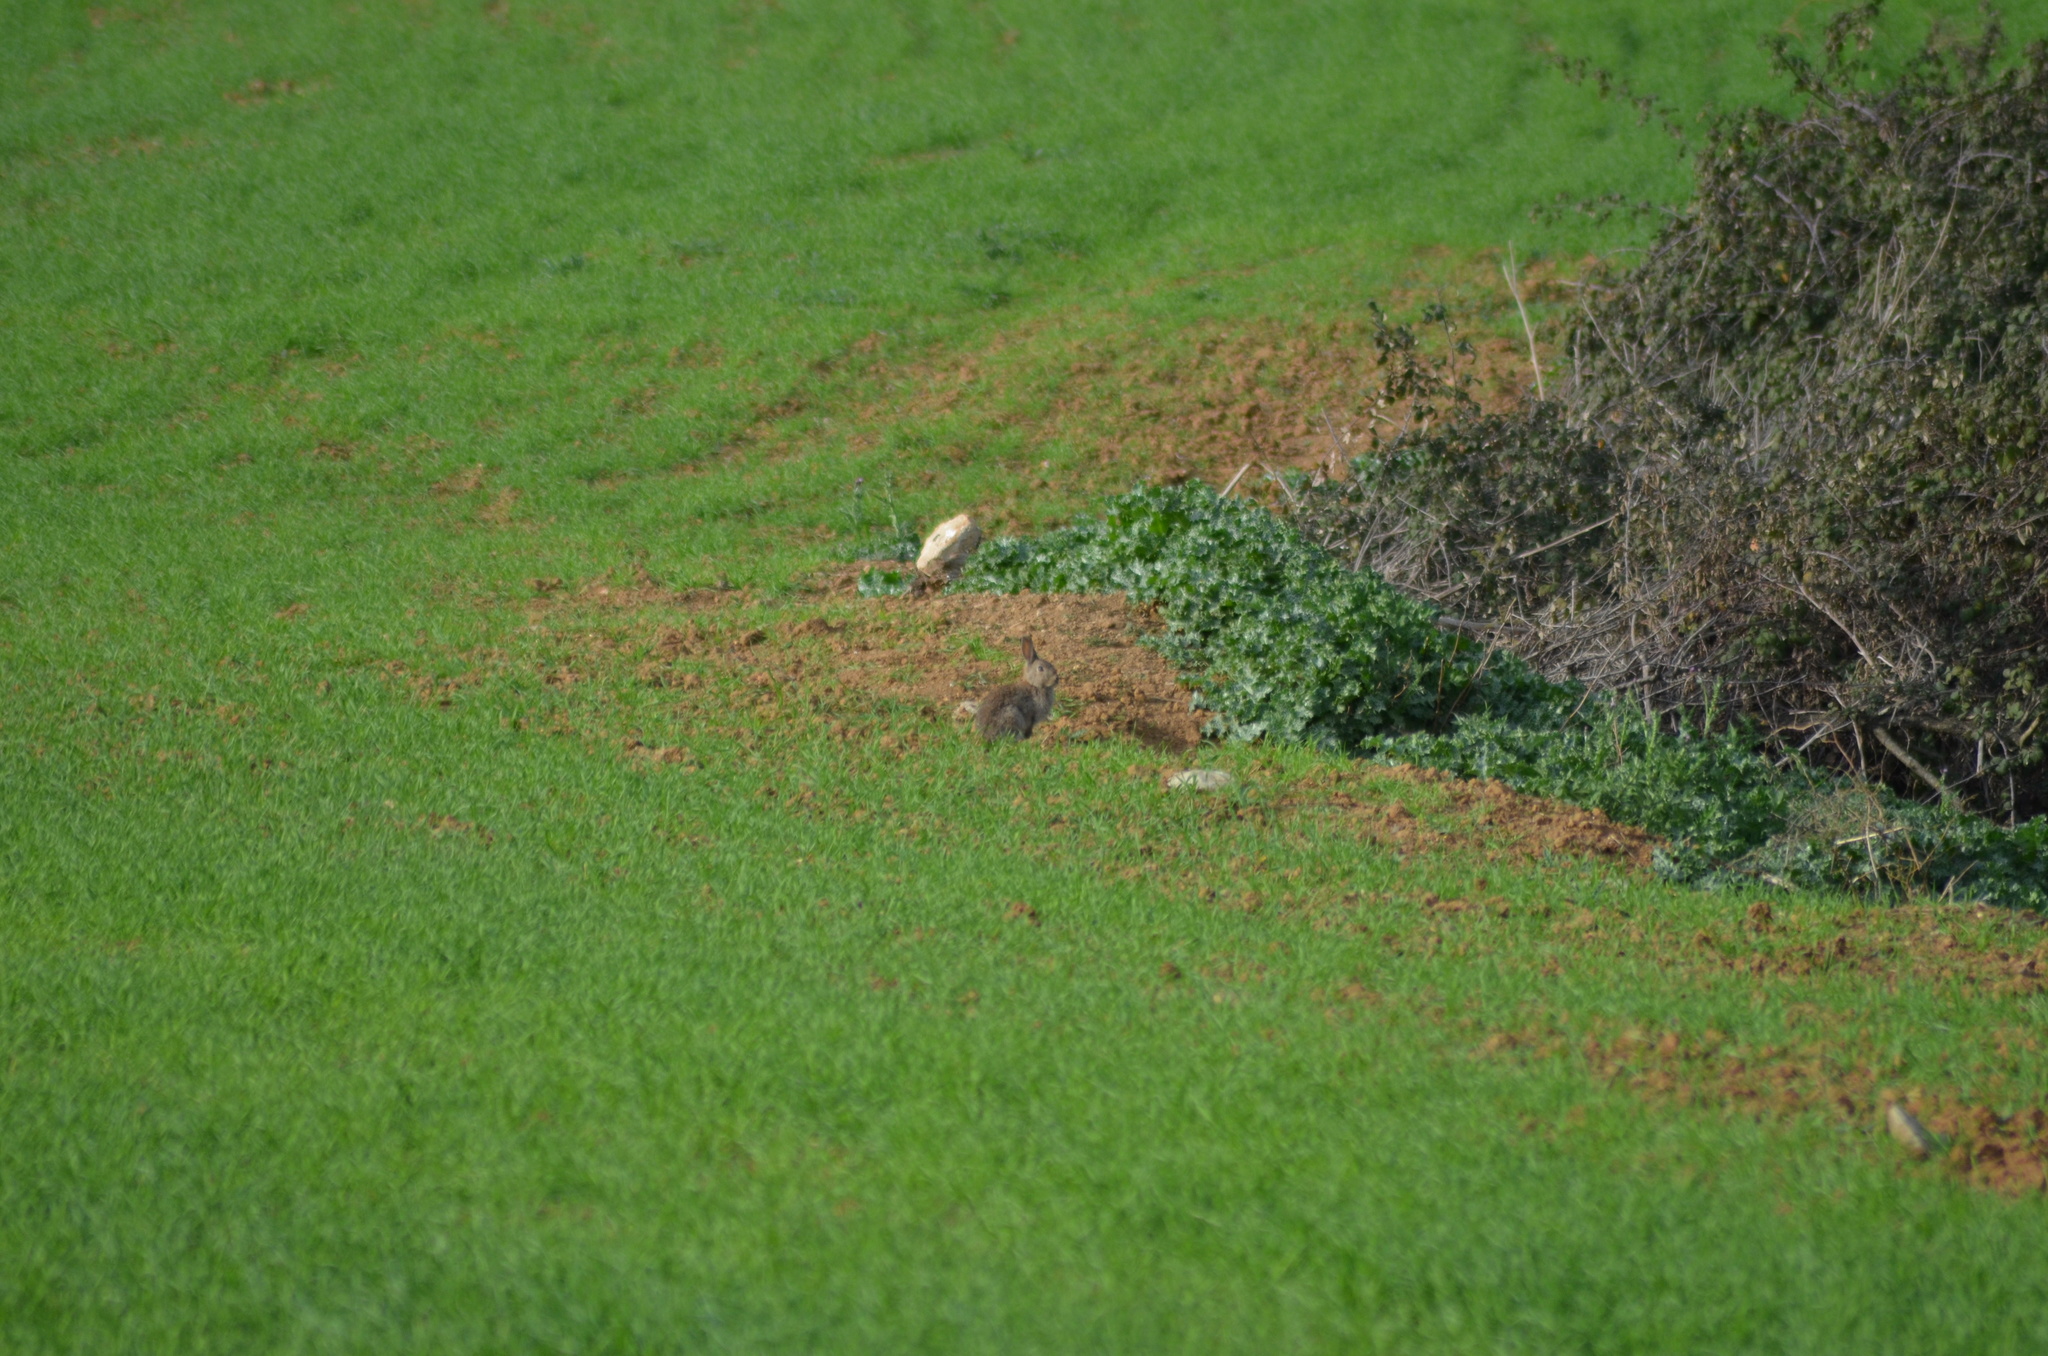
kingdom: Animalia
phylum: Chordata
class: Mammalia
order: Lagomorpha
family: Leporidae
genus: Oryctolagus
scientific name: Oryctolagus cuniculus
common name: European rabbit
